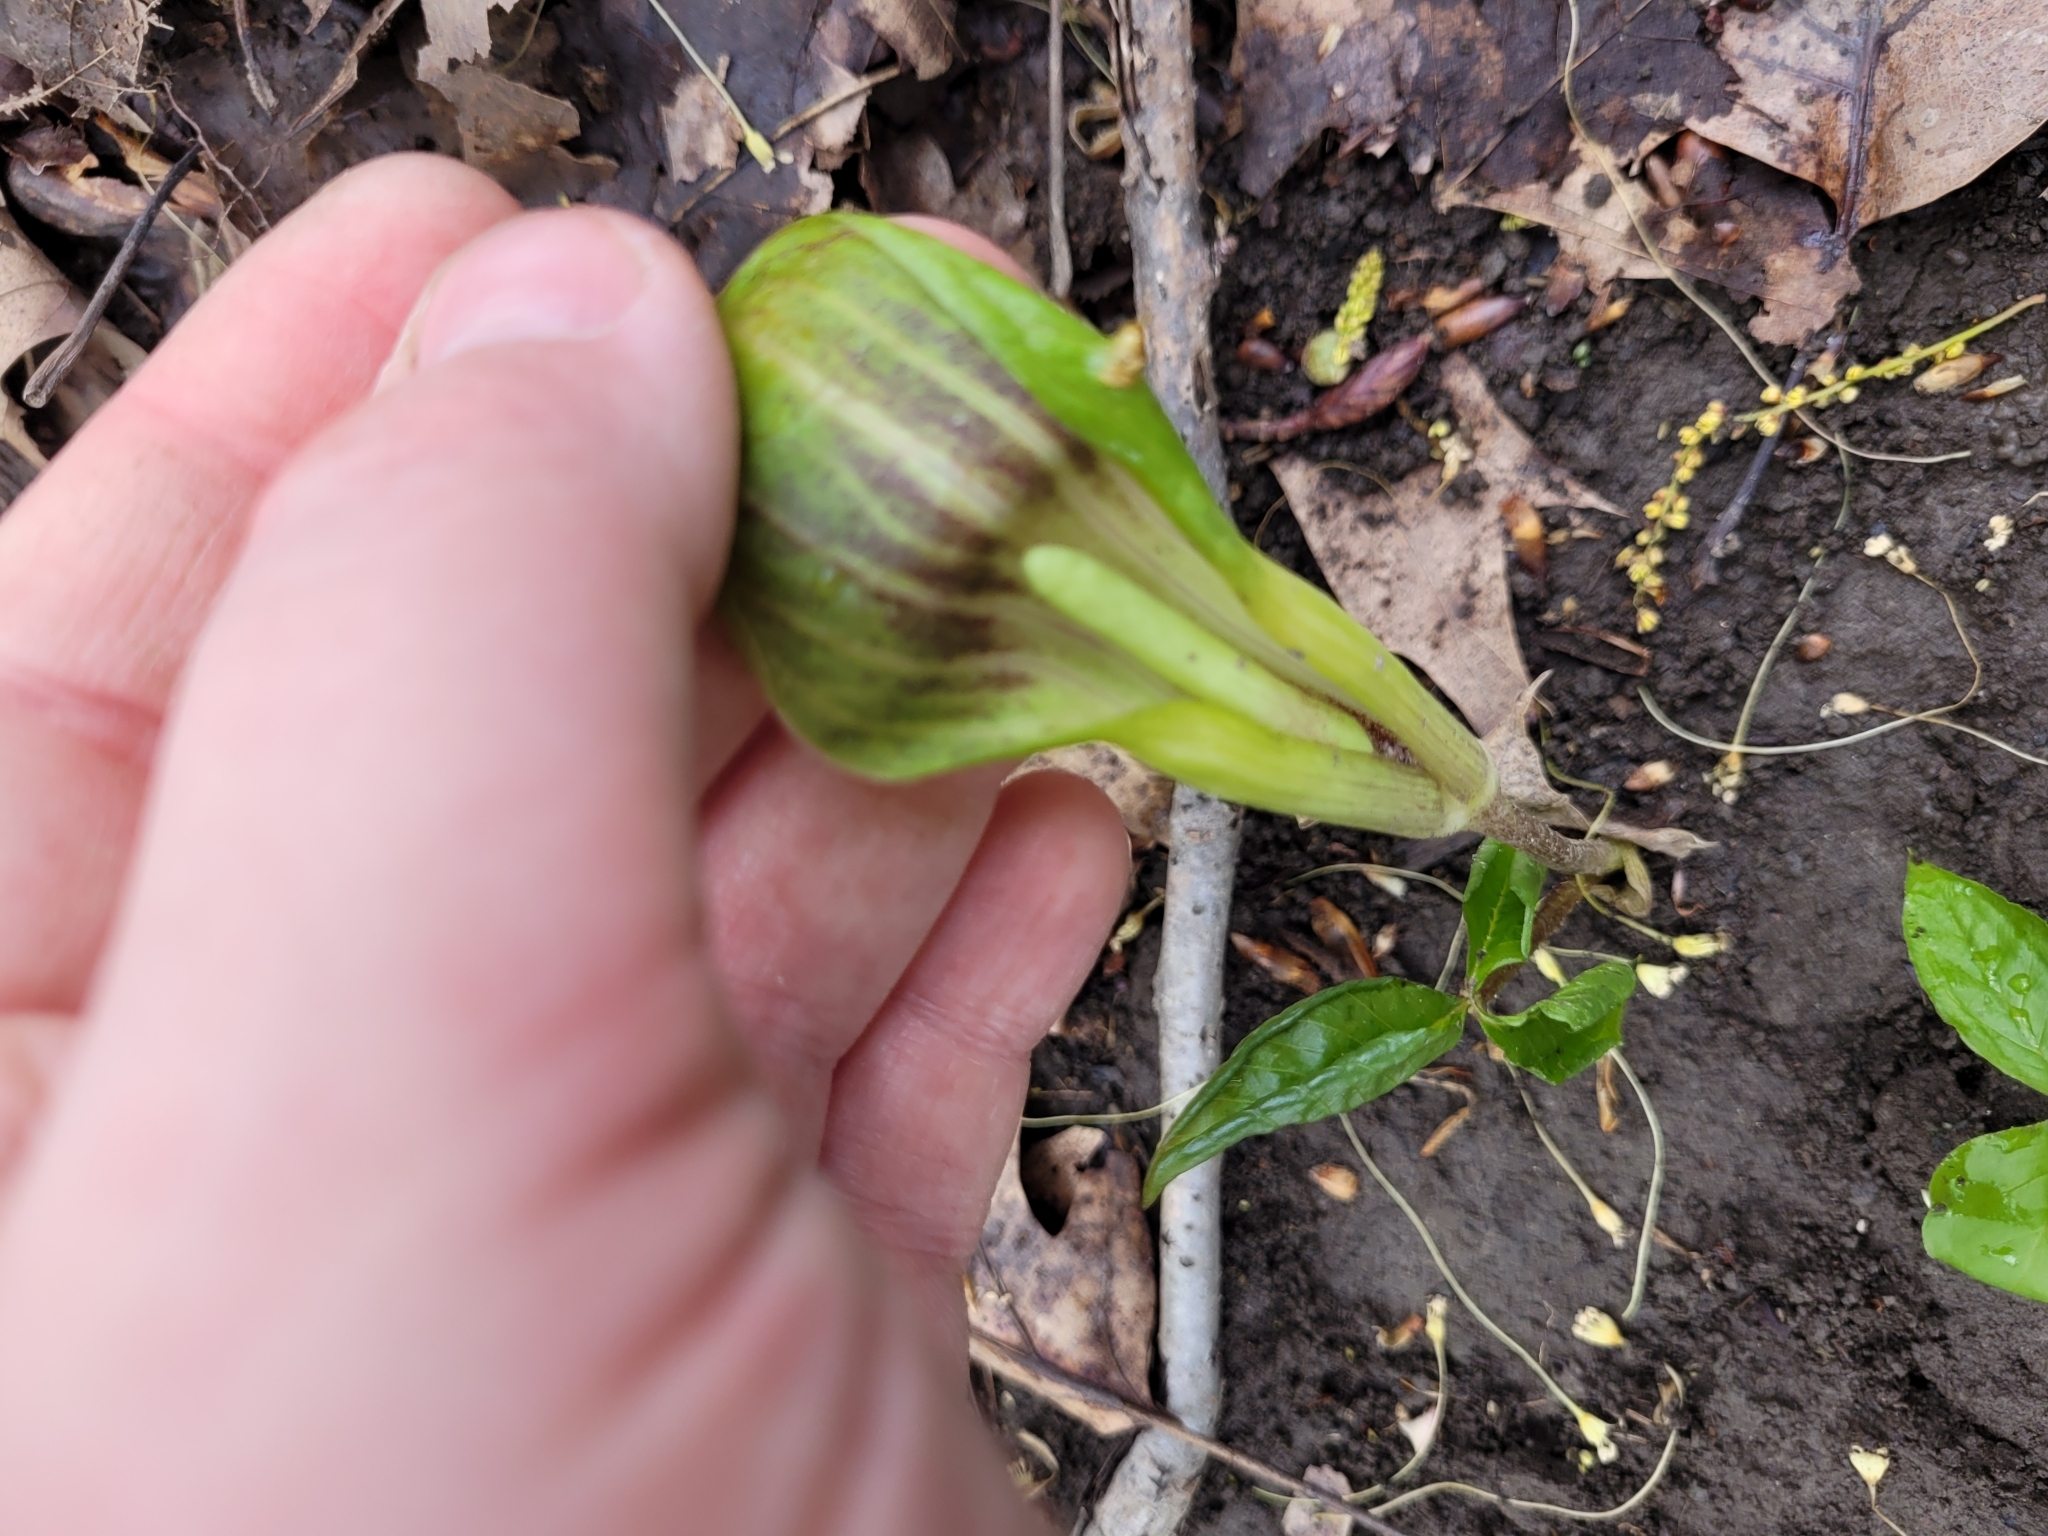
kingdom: Plantae
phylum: Tracheophyta
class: Liliopsida
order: Alismatales
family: Araceae
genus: Arisaema
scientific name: Arisaema triphyllum
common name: Jack-in-the-pulpit
